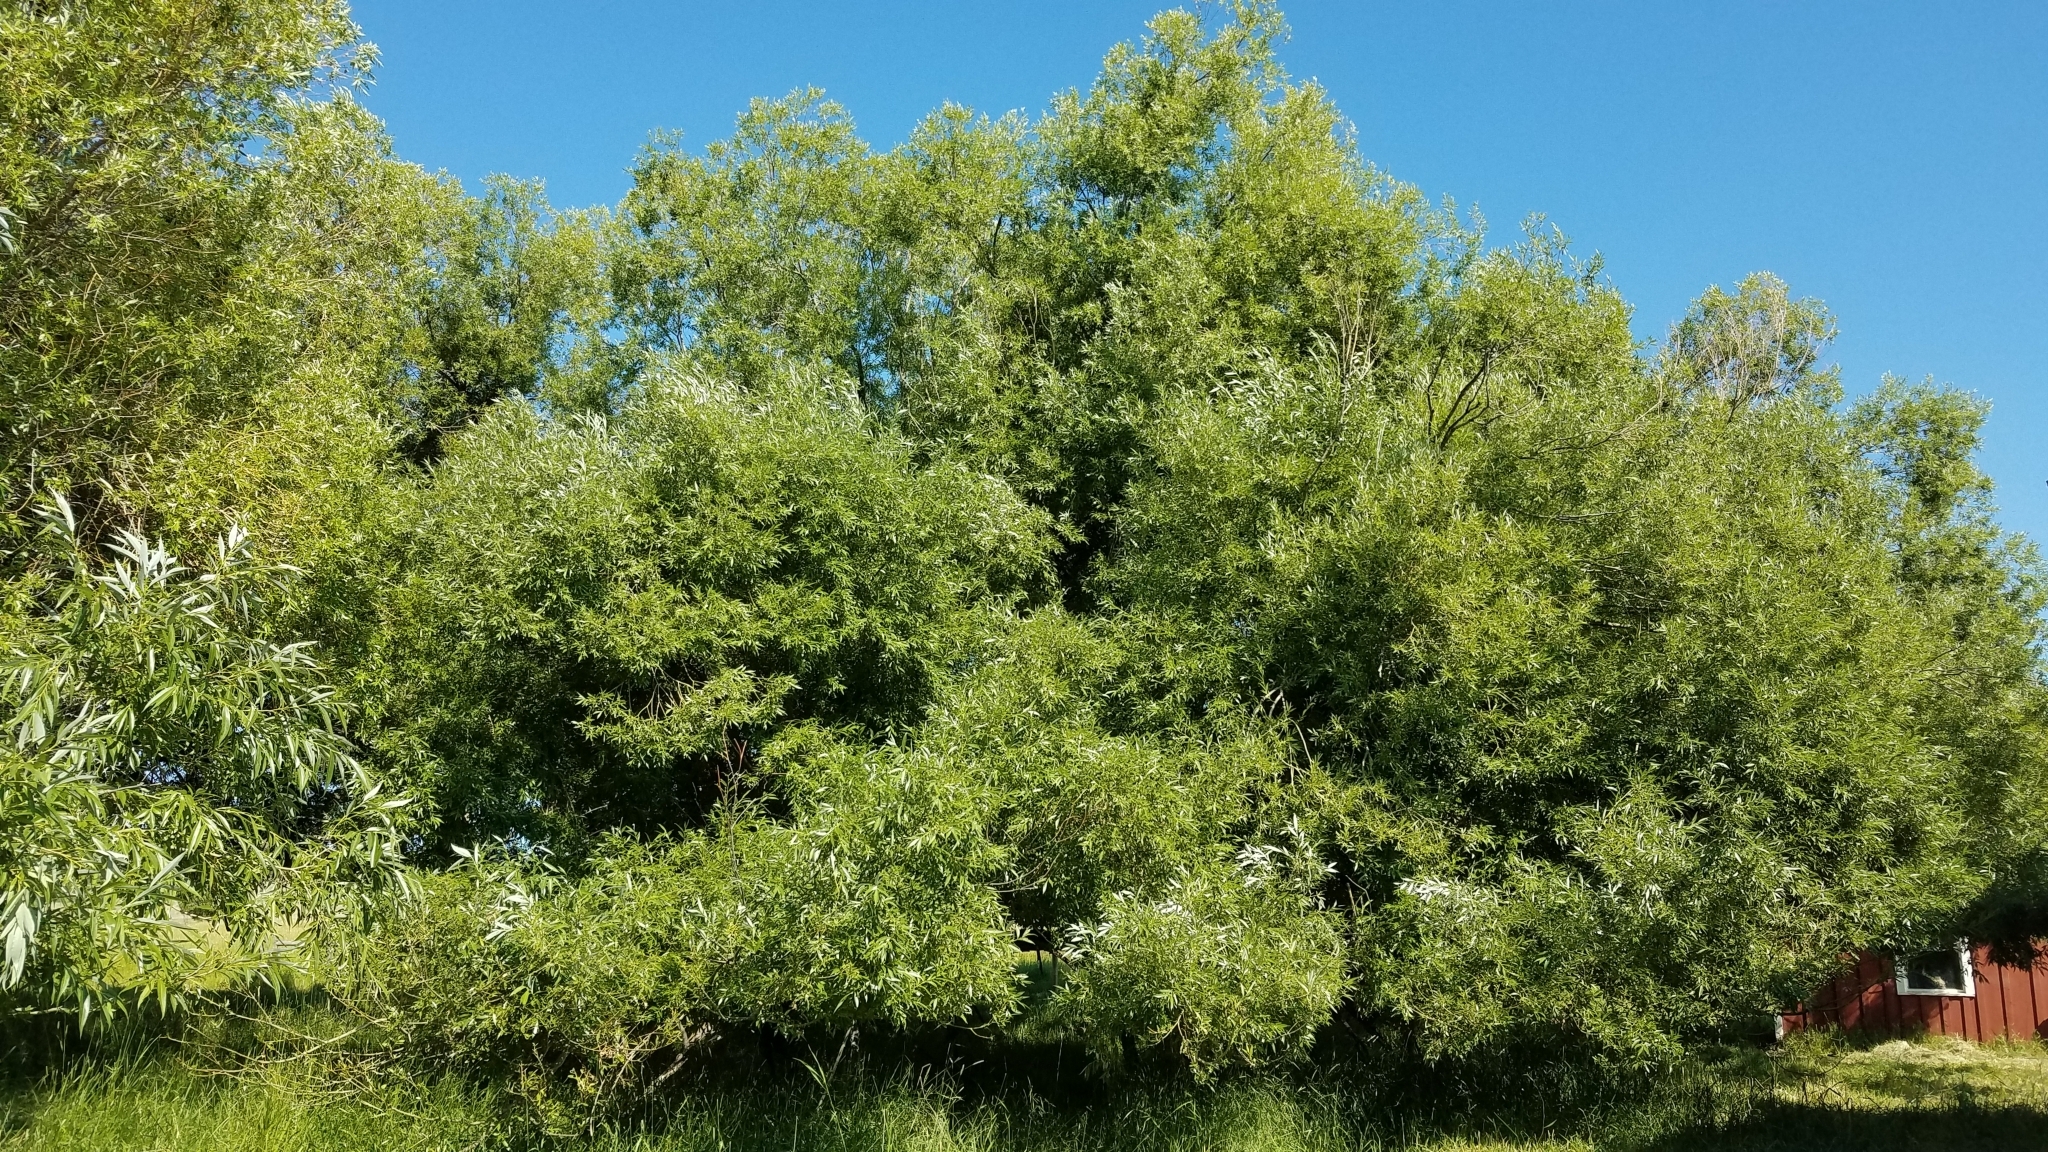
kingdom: Plantae
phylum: Tracheophyta
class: Magnoliopsida
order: Malpighiales
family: Salicaceae
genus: Salix
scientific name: Salix fragilis
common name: Crack willow
